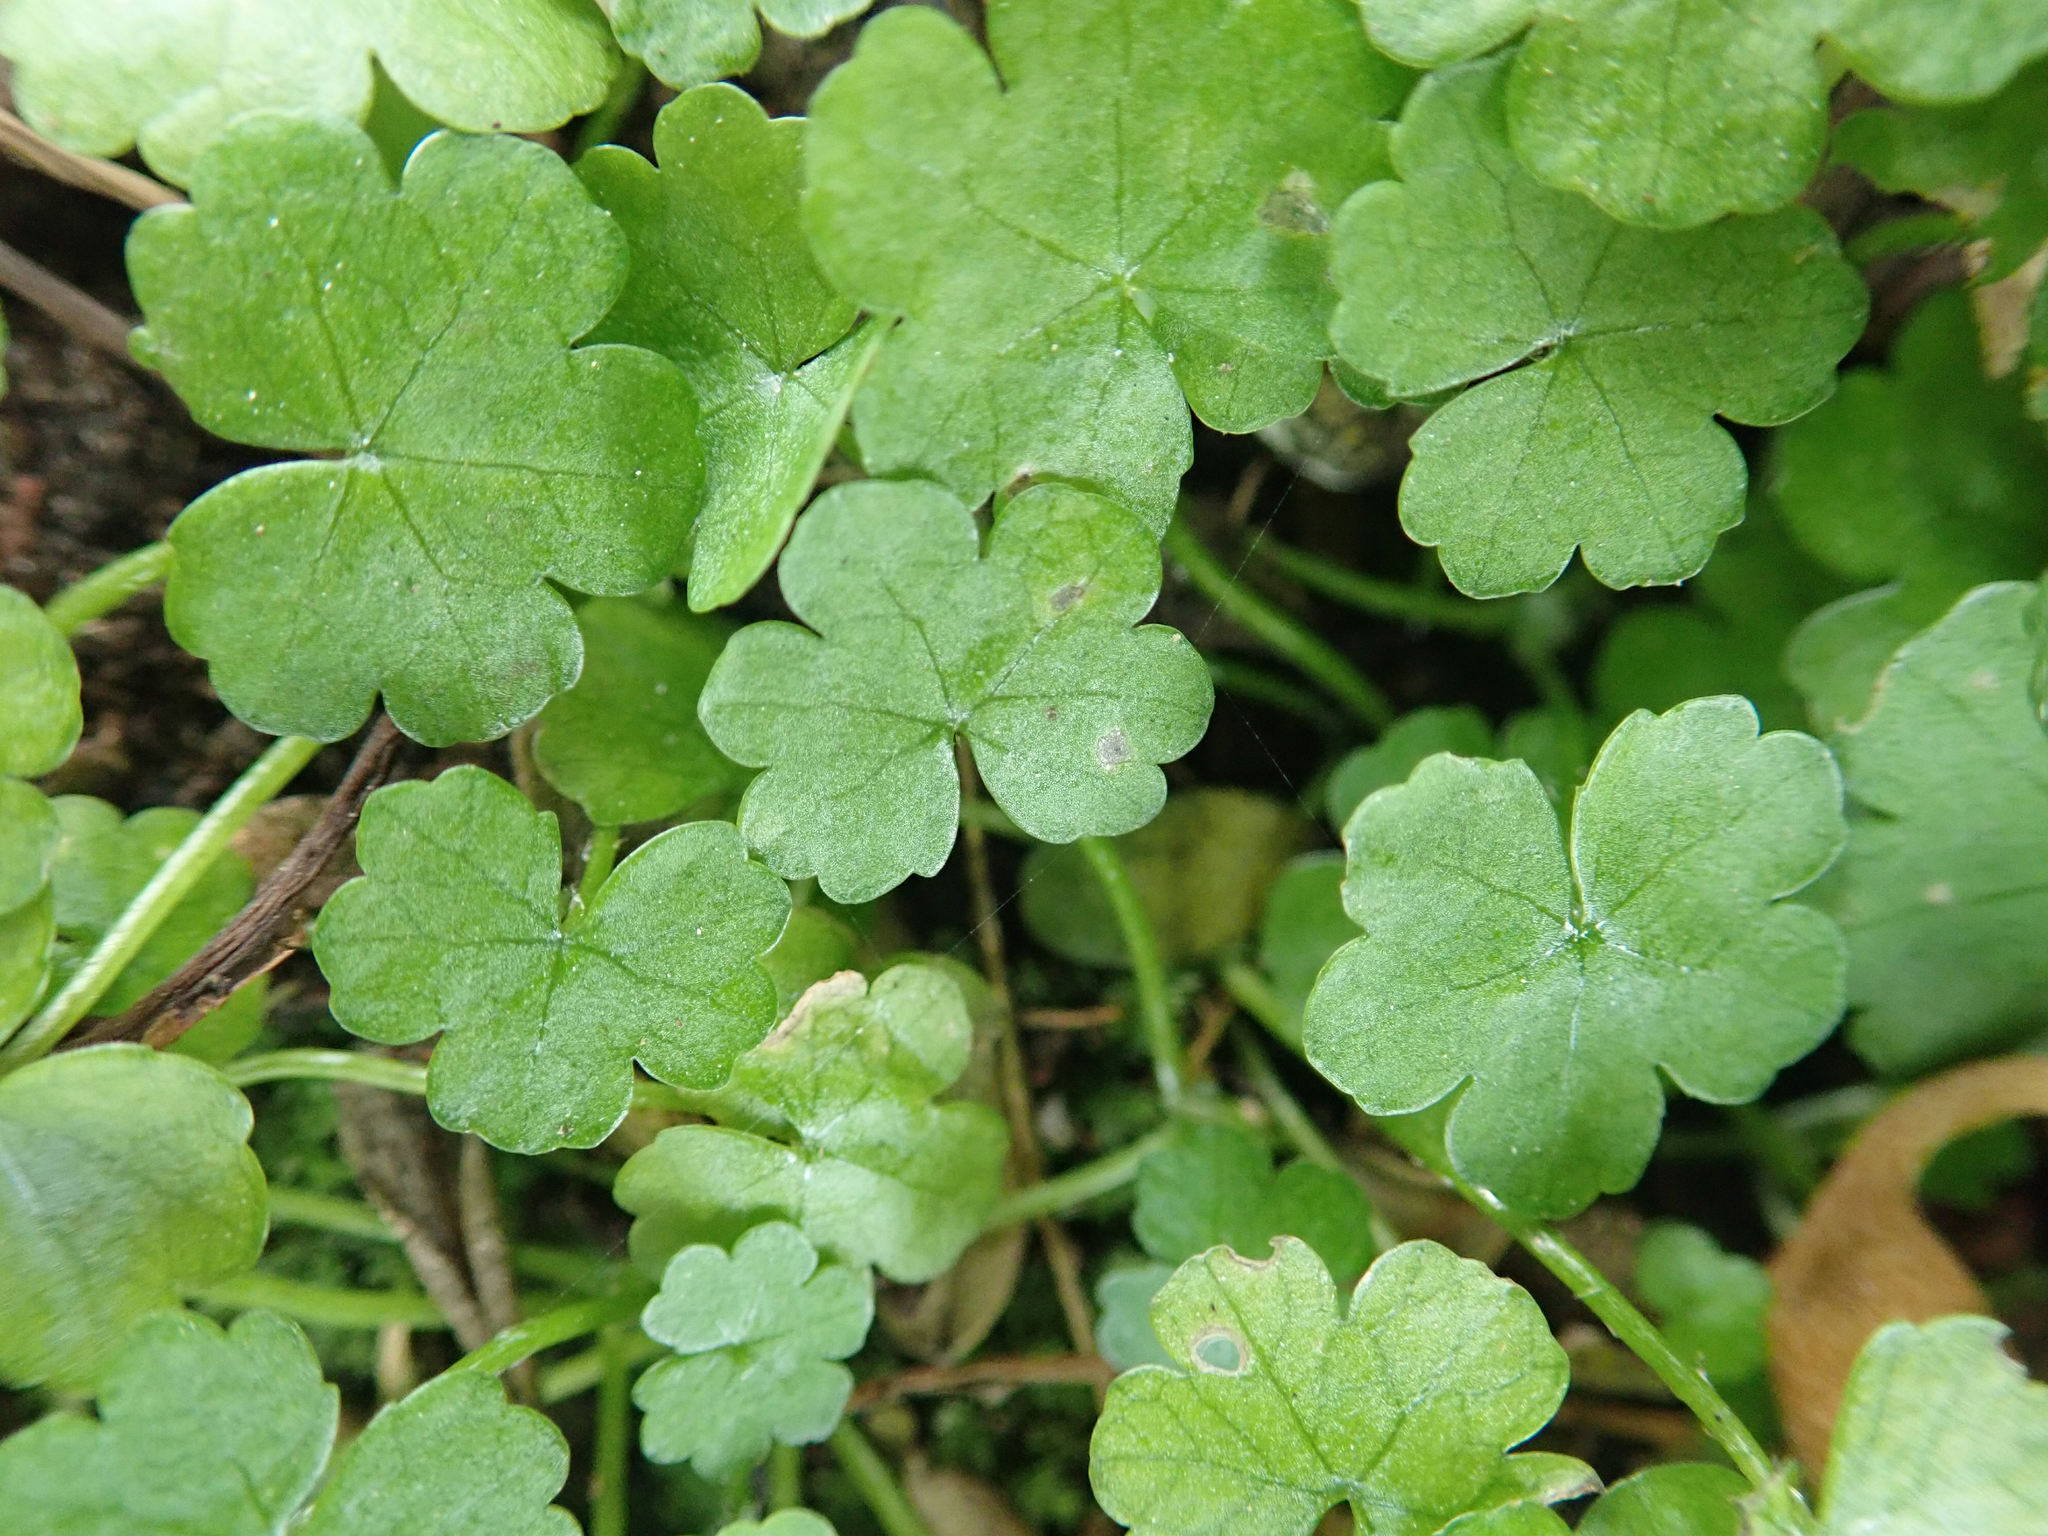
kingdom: Plantae
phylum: Tracheophyta
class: Magnoliopsida
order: Apiales
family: Araliaceae
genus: Hydrocotyle
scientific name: Hydrocotyle heteromeria
